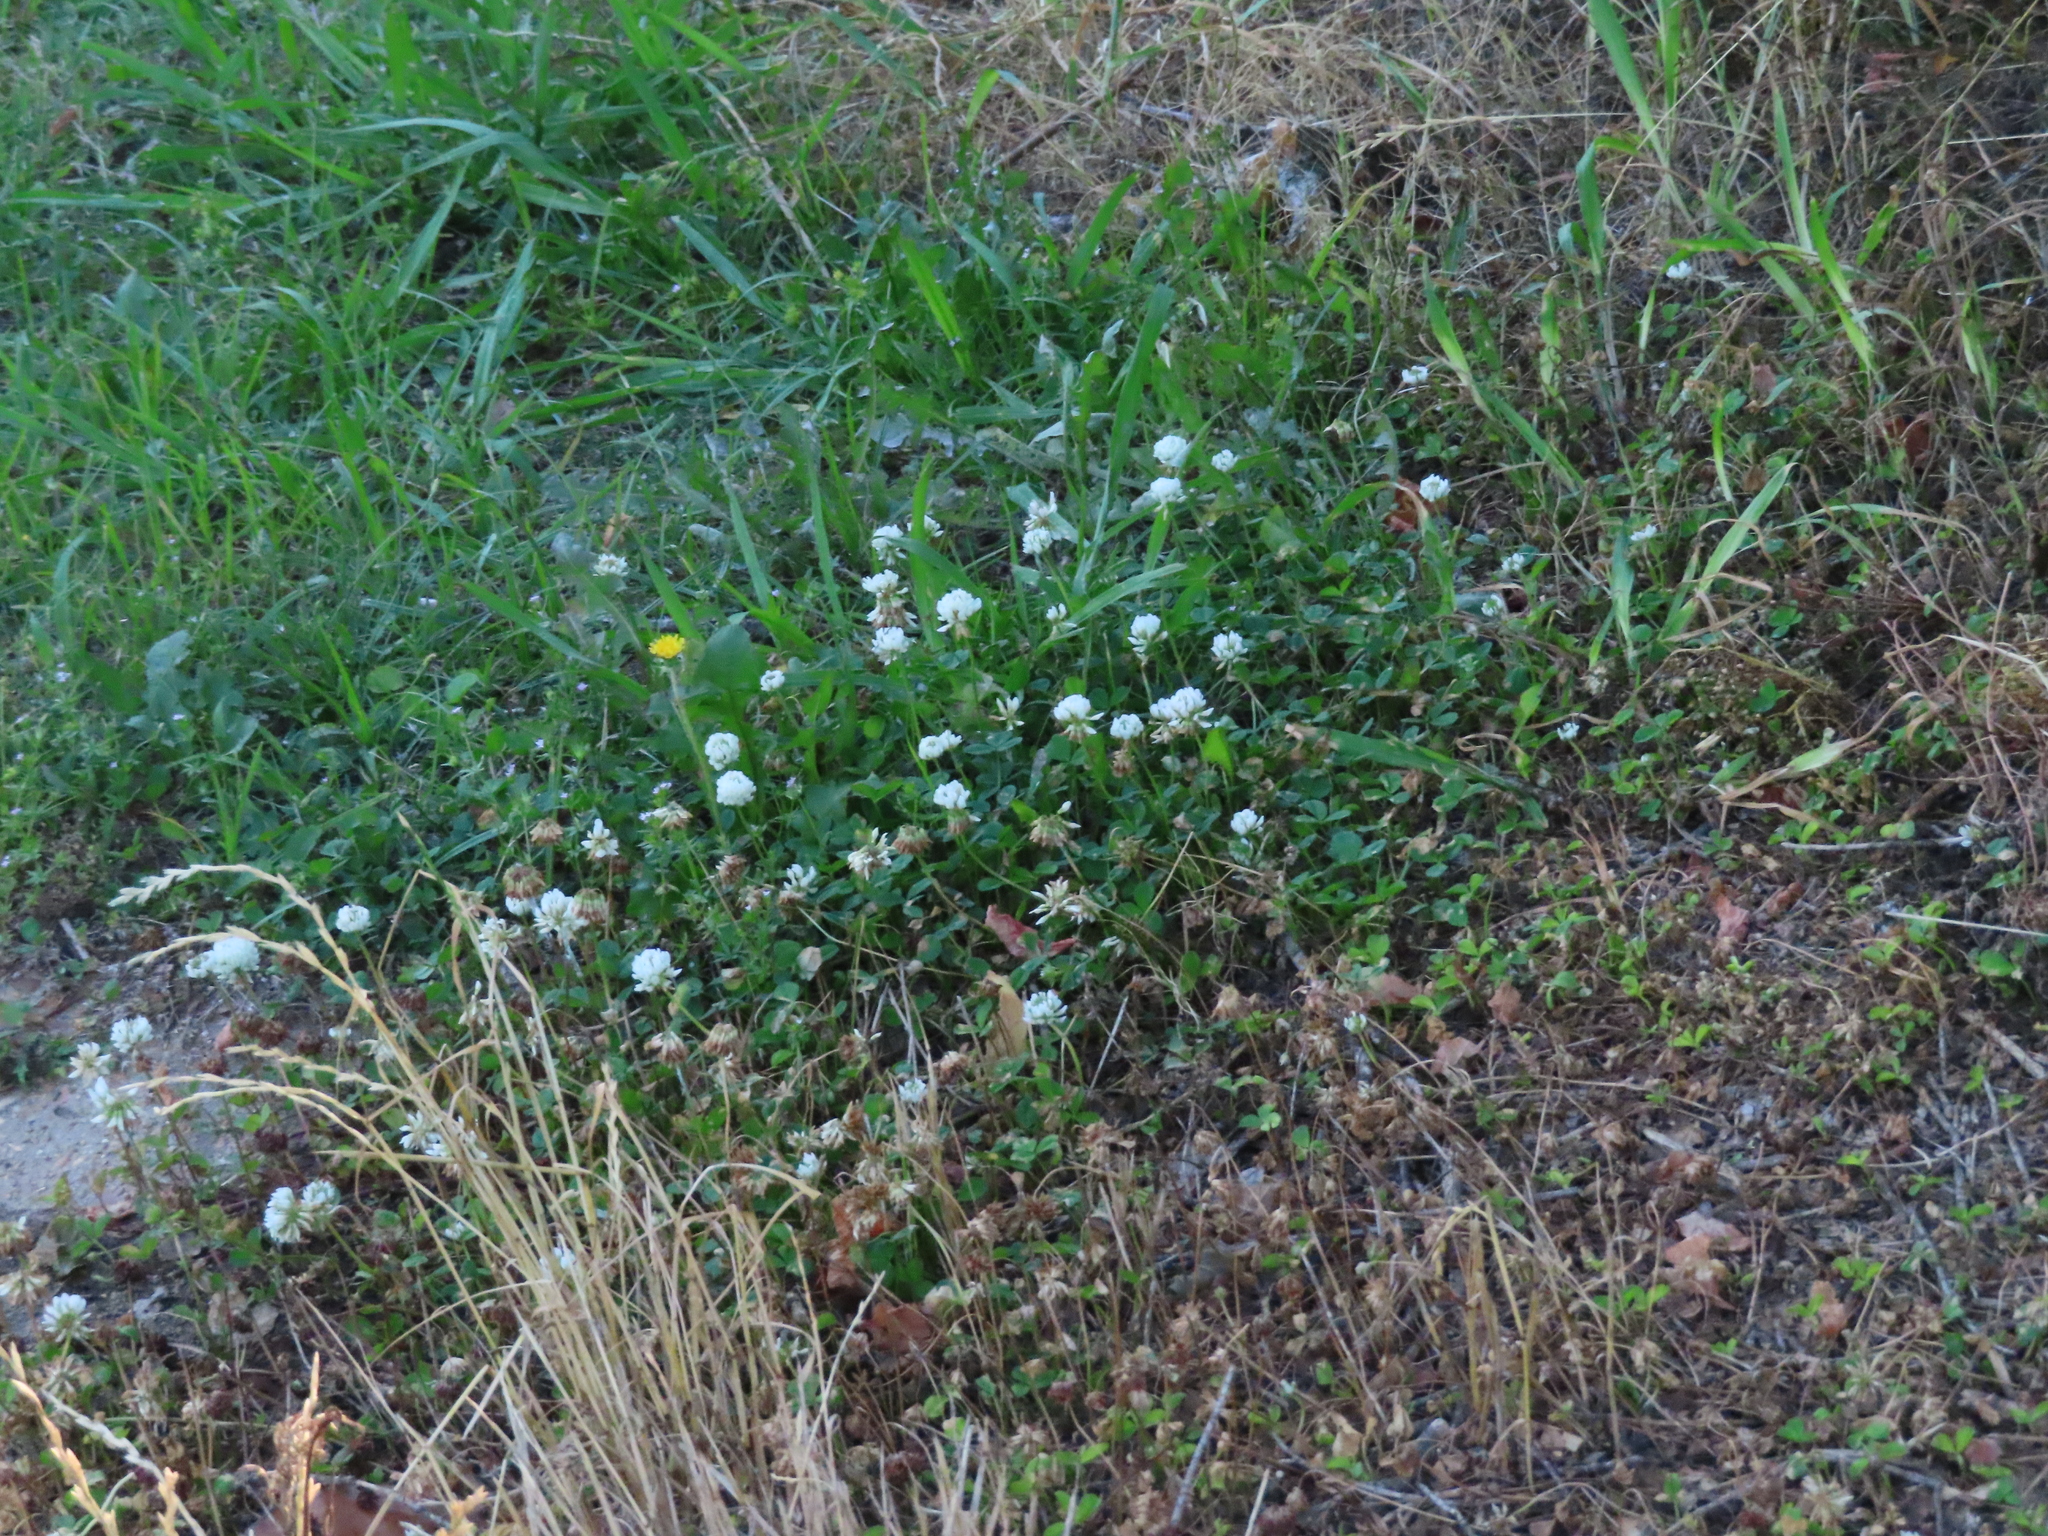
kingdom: Plantae
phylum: Tracheophyta
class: Magnoliopsida
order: Fabales
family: Fabaceae
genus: Trifolium
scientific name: Trifolium repens
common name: White clover
